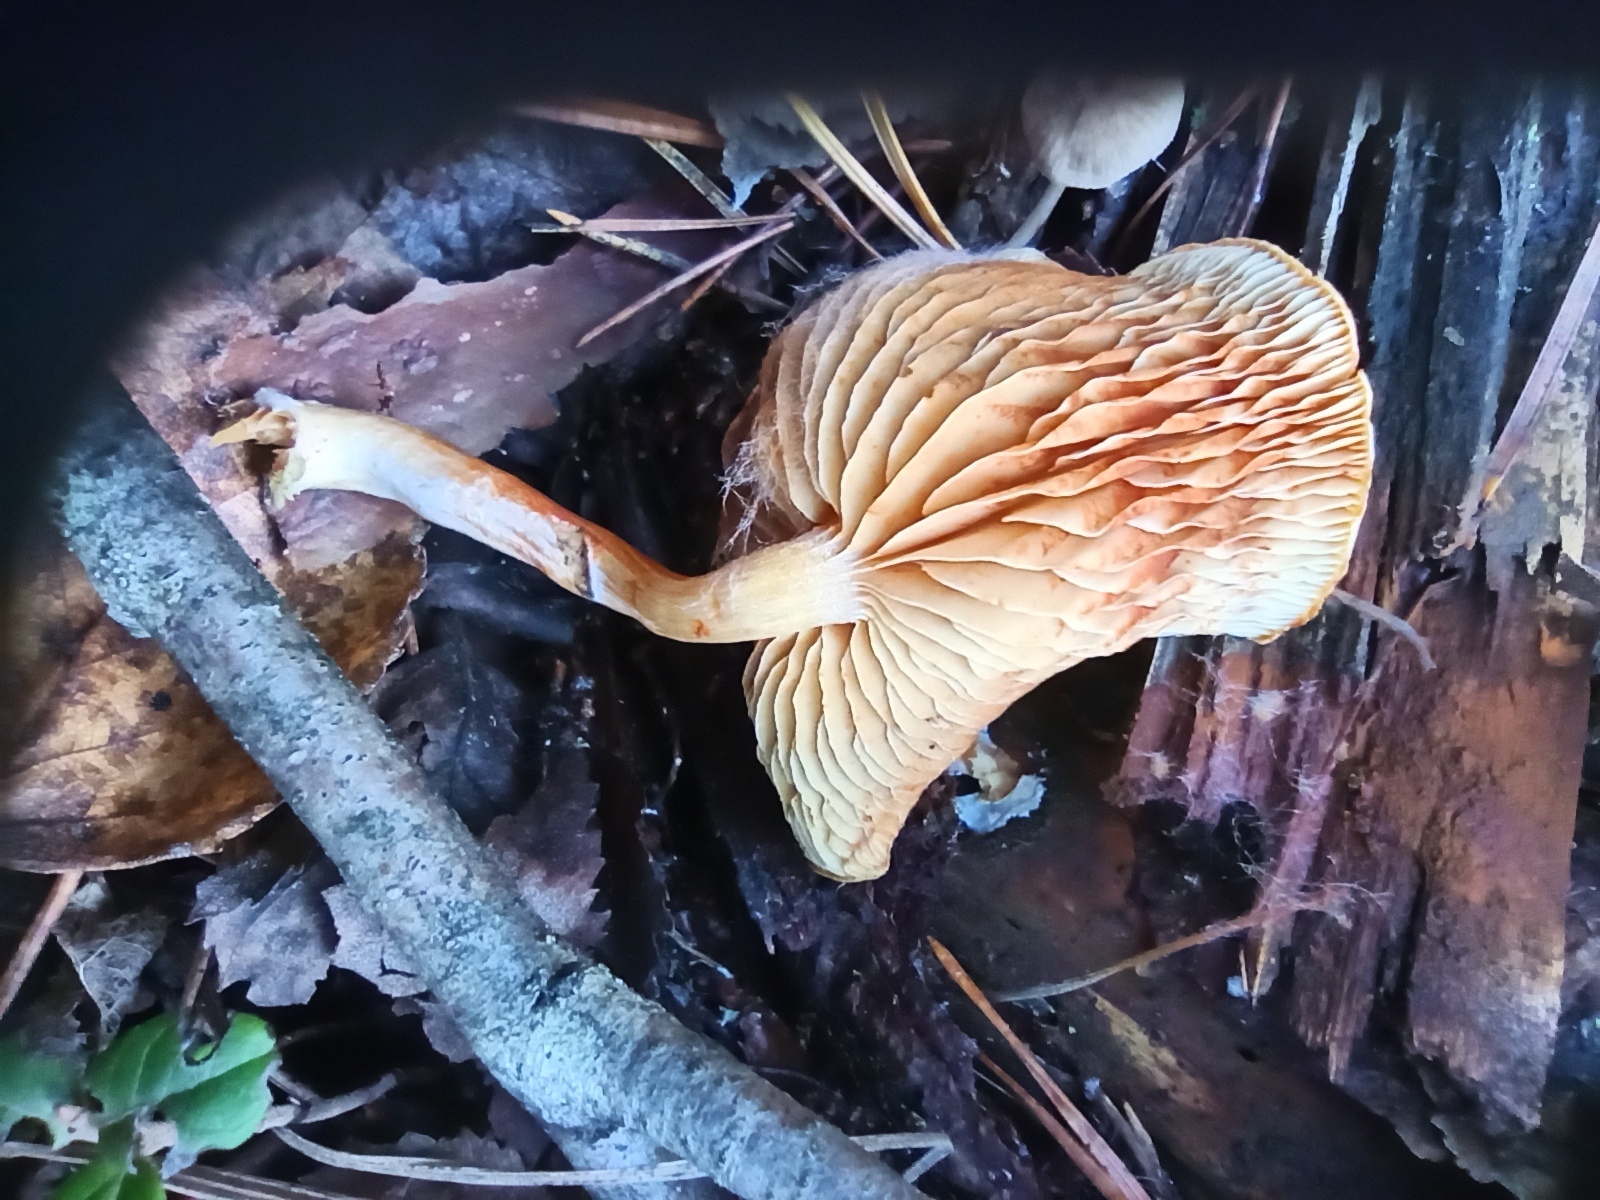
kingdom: Fungi
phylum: Basidiomycota
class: Agaricomycetes
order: Agaricales
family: Hymenogastraceae
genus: Gymnopilus
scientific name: Gymnopilus penetrans
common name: Common rustgill
